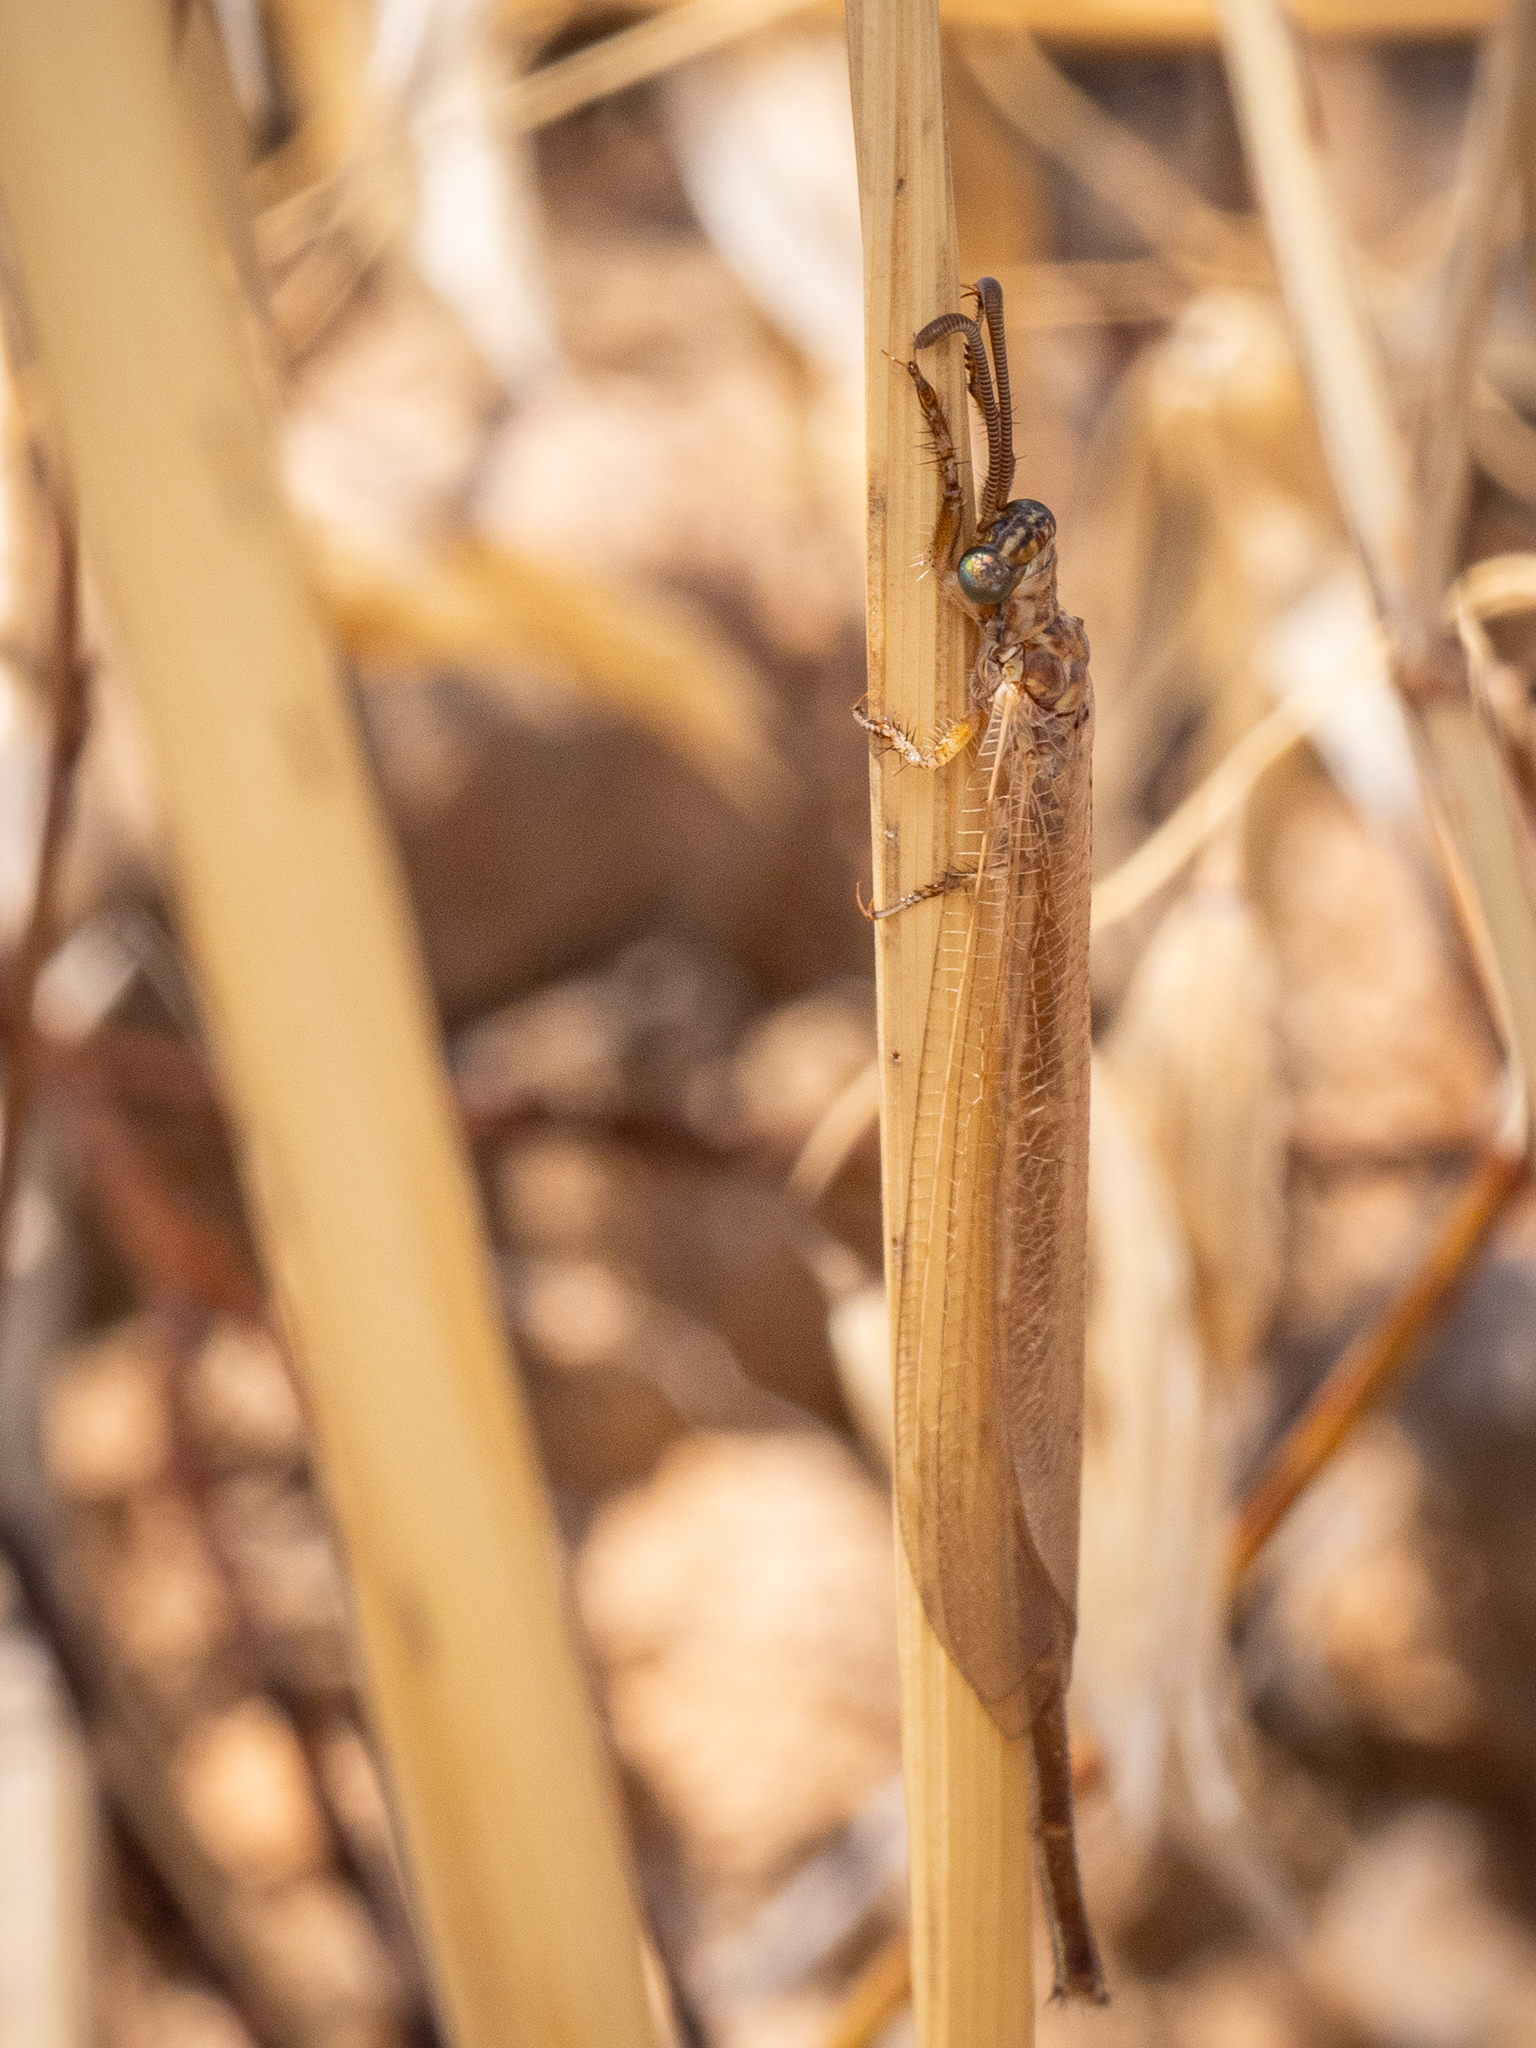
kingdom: Animalia
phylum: Arthropoda
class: Insecta
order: Neuroptera
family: Myrmeleontidae
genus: Creoleon
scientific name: Creoleon plumbeus
